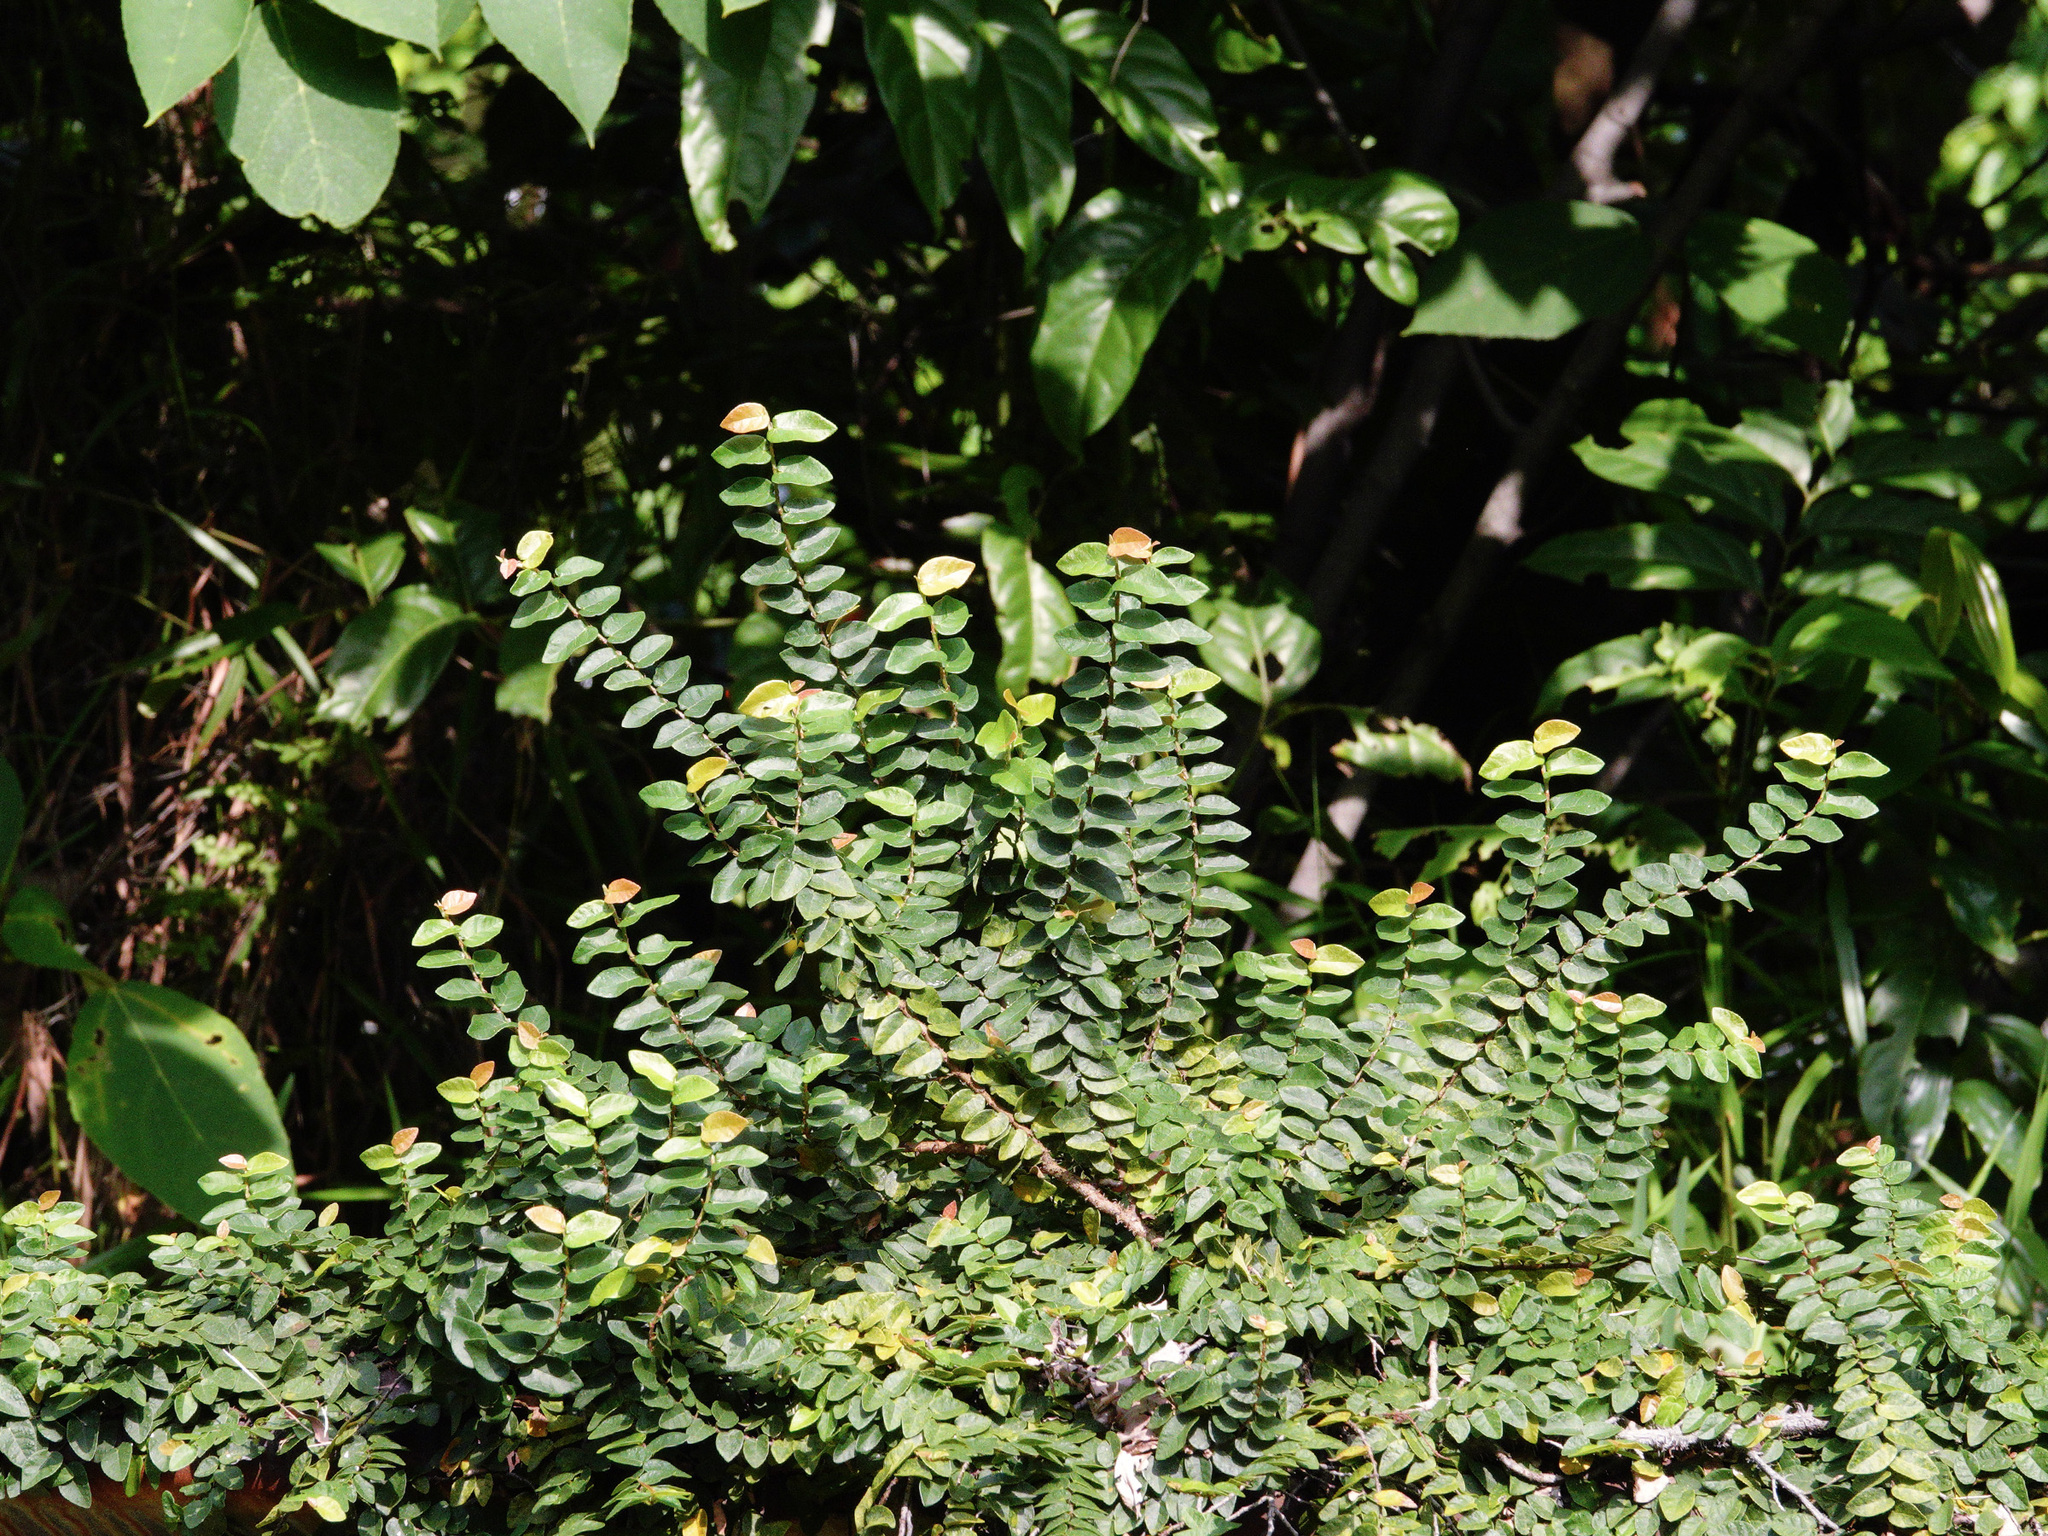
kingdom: Plantae
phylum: Tracheophyta
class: Magnoliopsida
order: Rosales
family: Moraceae
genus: Ficus
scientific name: Ficus pumila
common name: Climbingfig
